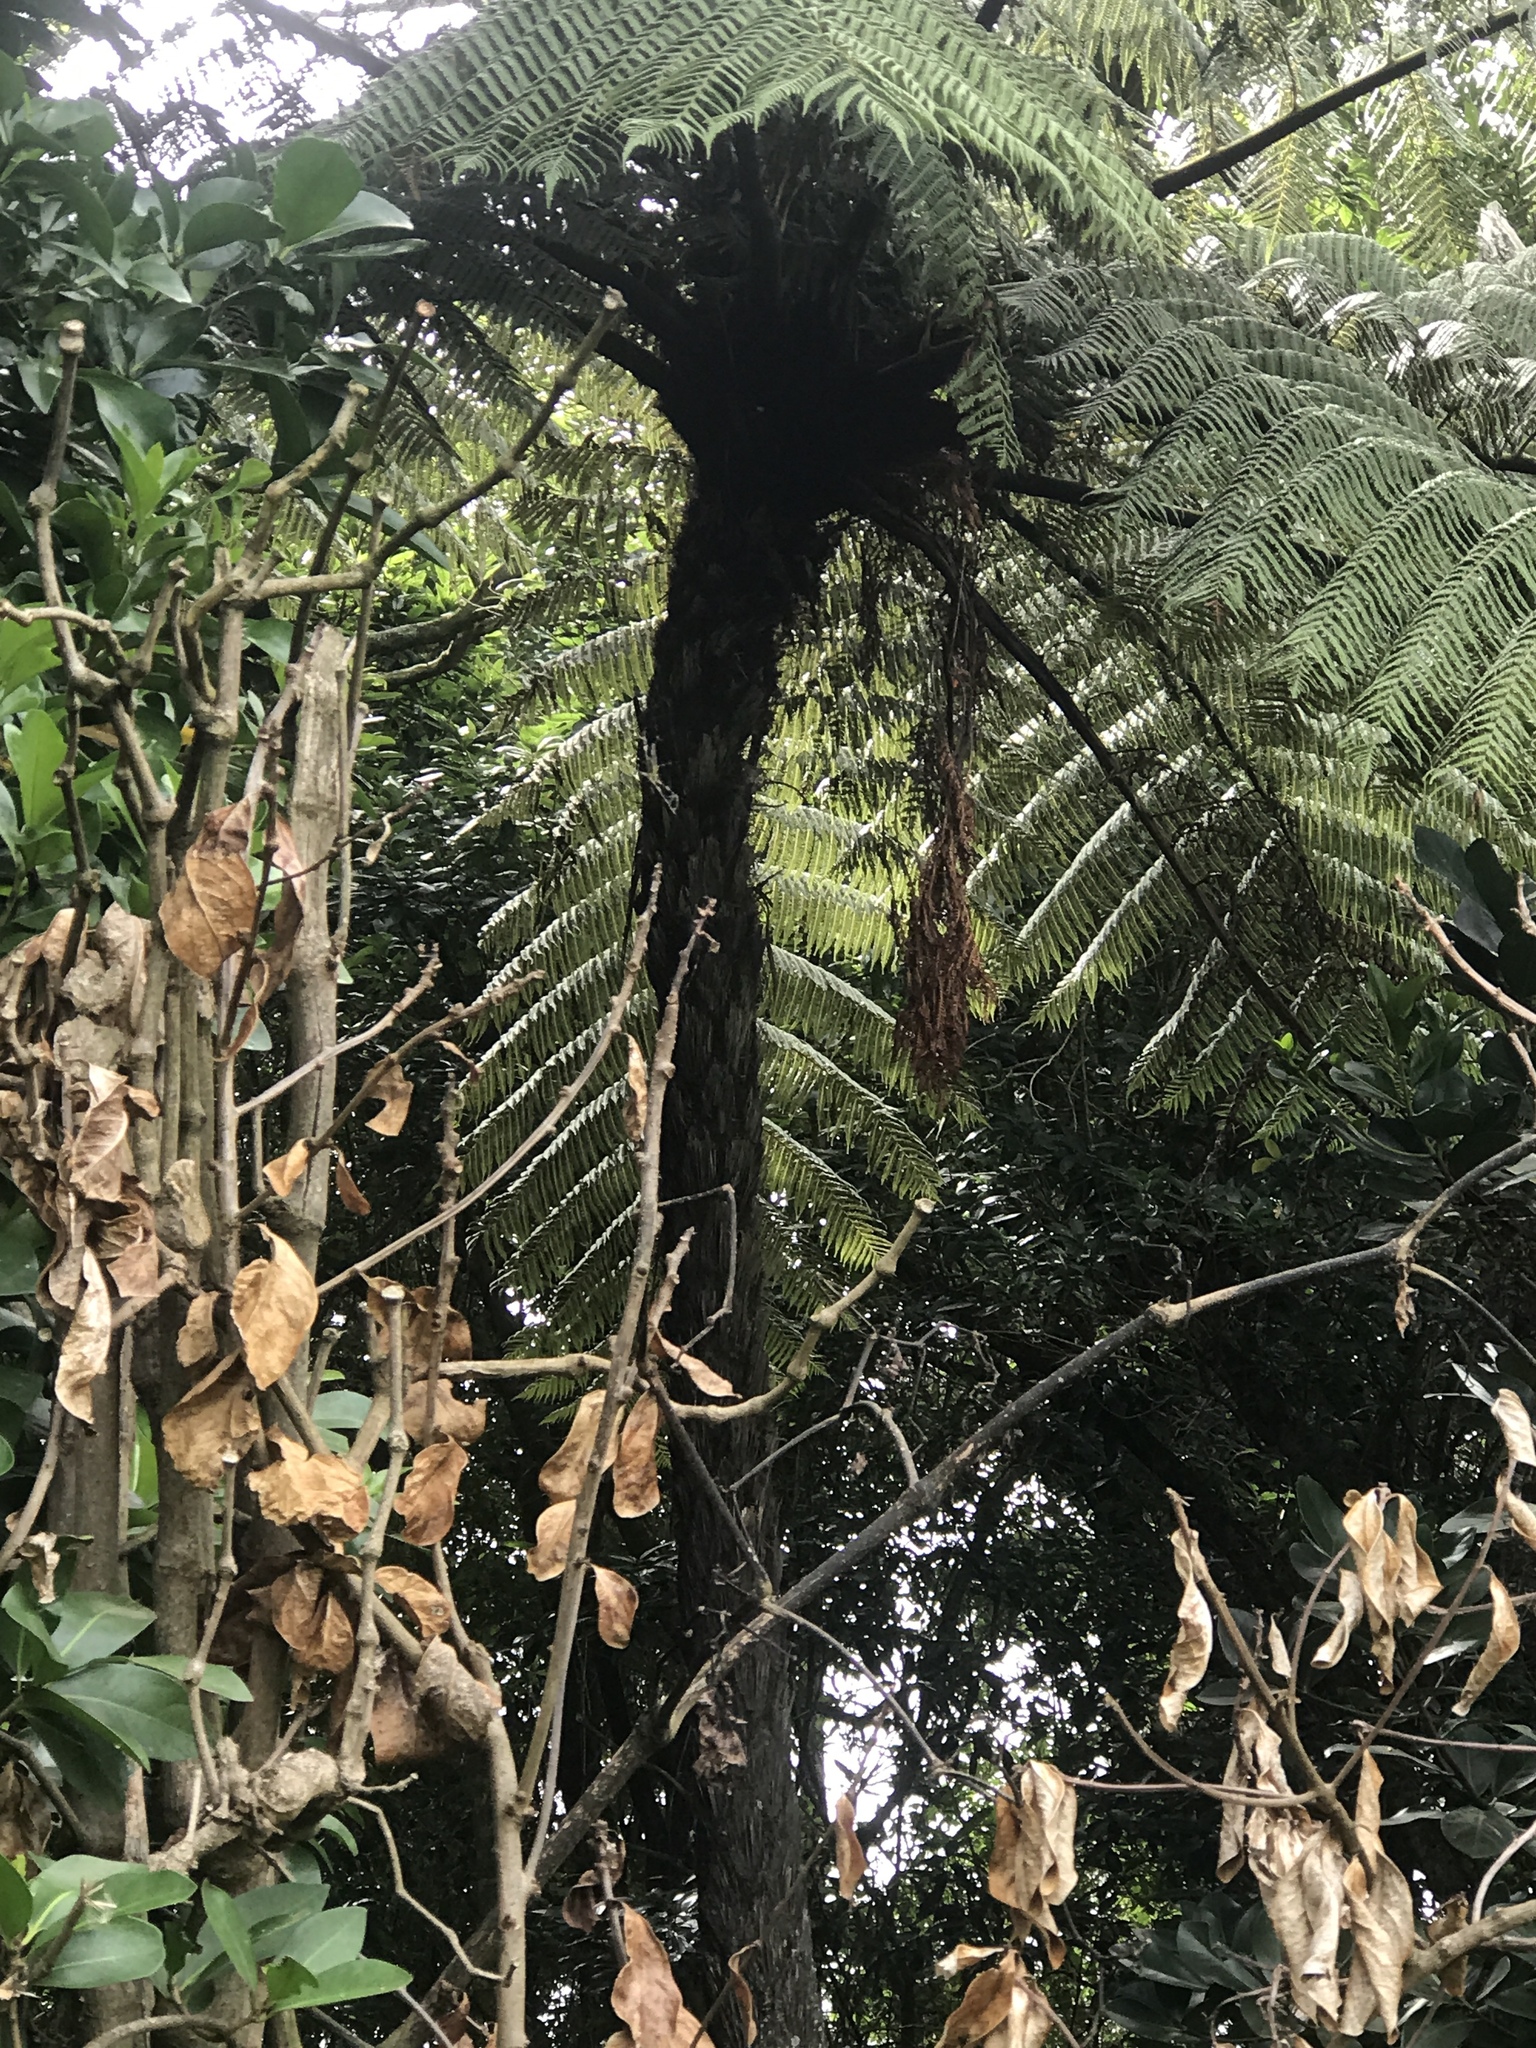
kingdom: Plantae
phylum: Tracheophyta
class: Polypodiopsida
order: Cyatheales
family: Cyatheaceae
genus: Sphaeropteris
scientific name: Sphaeropteris medullaris
